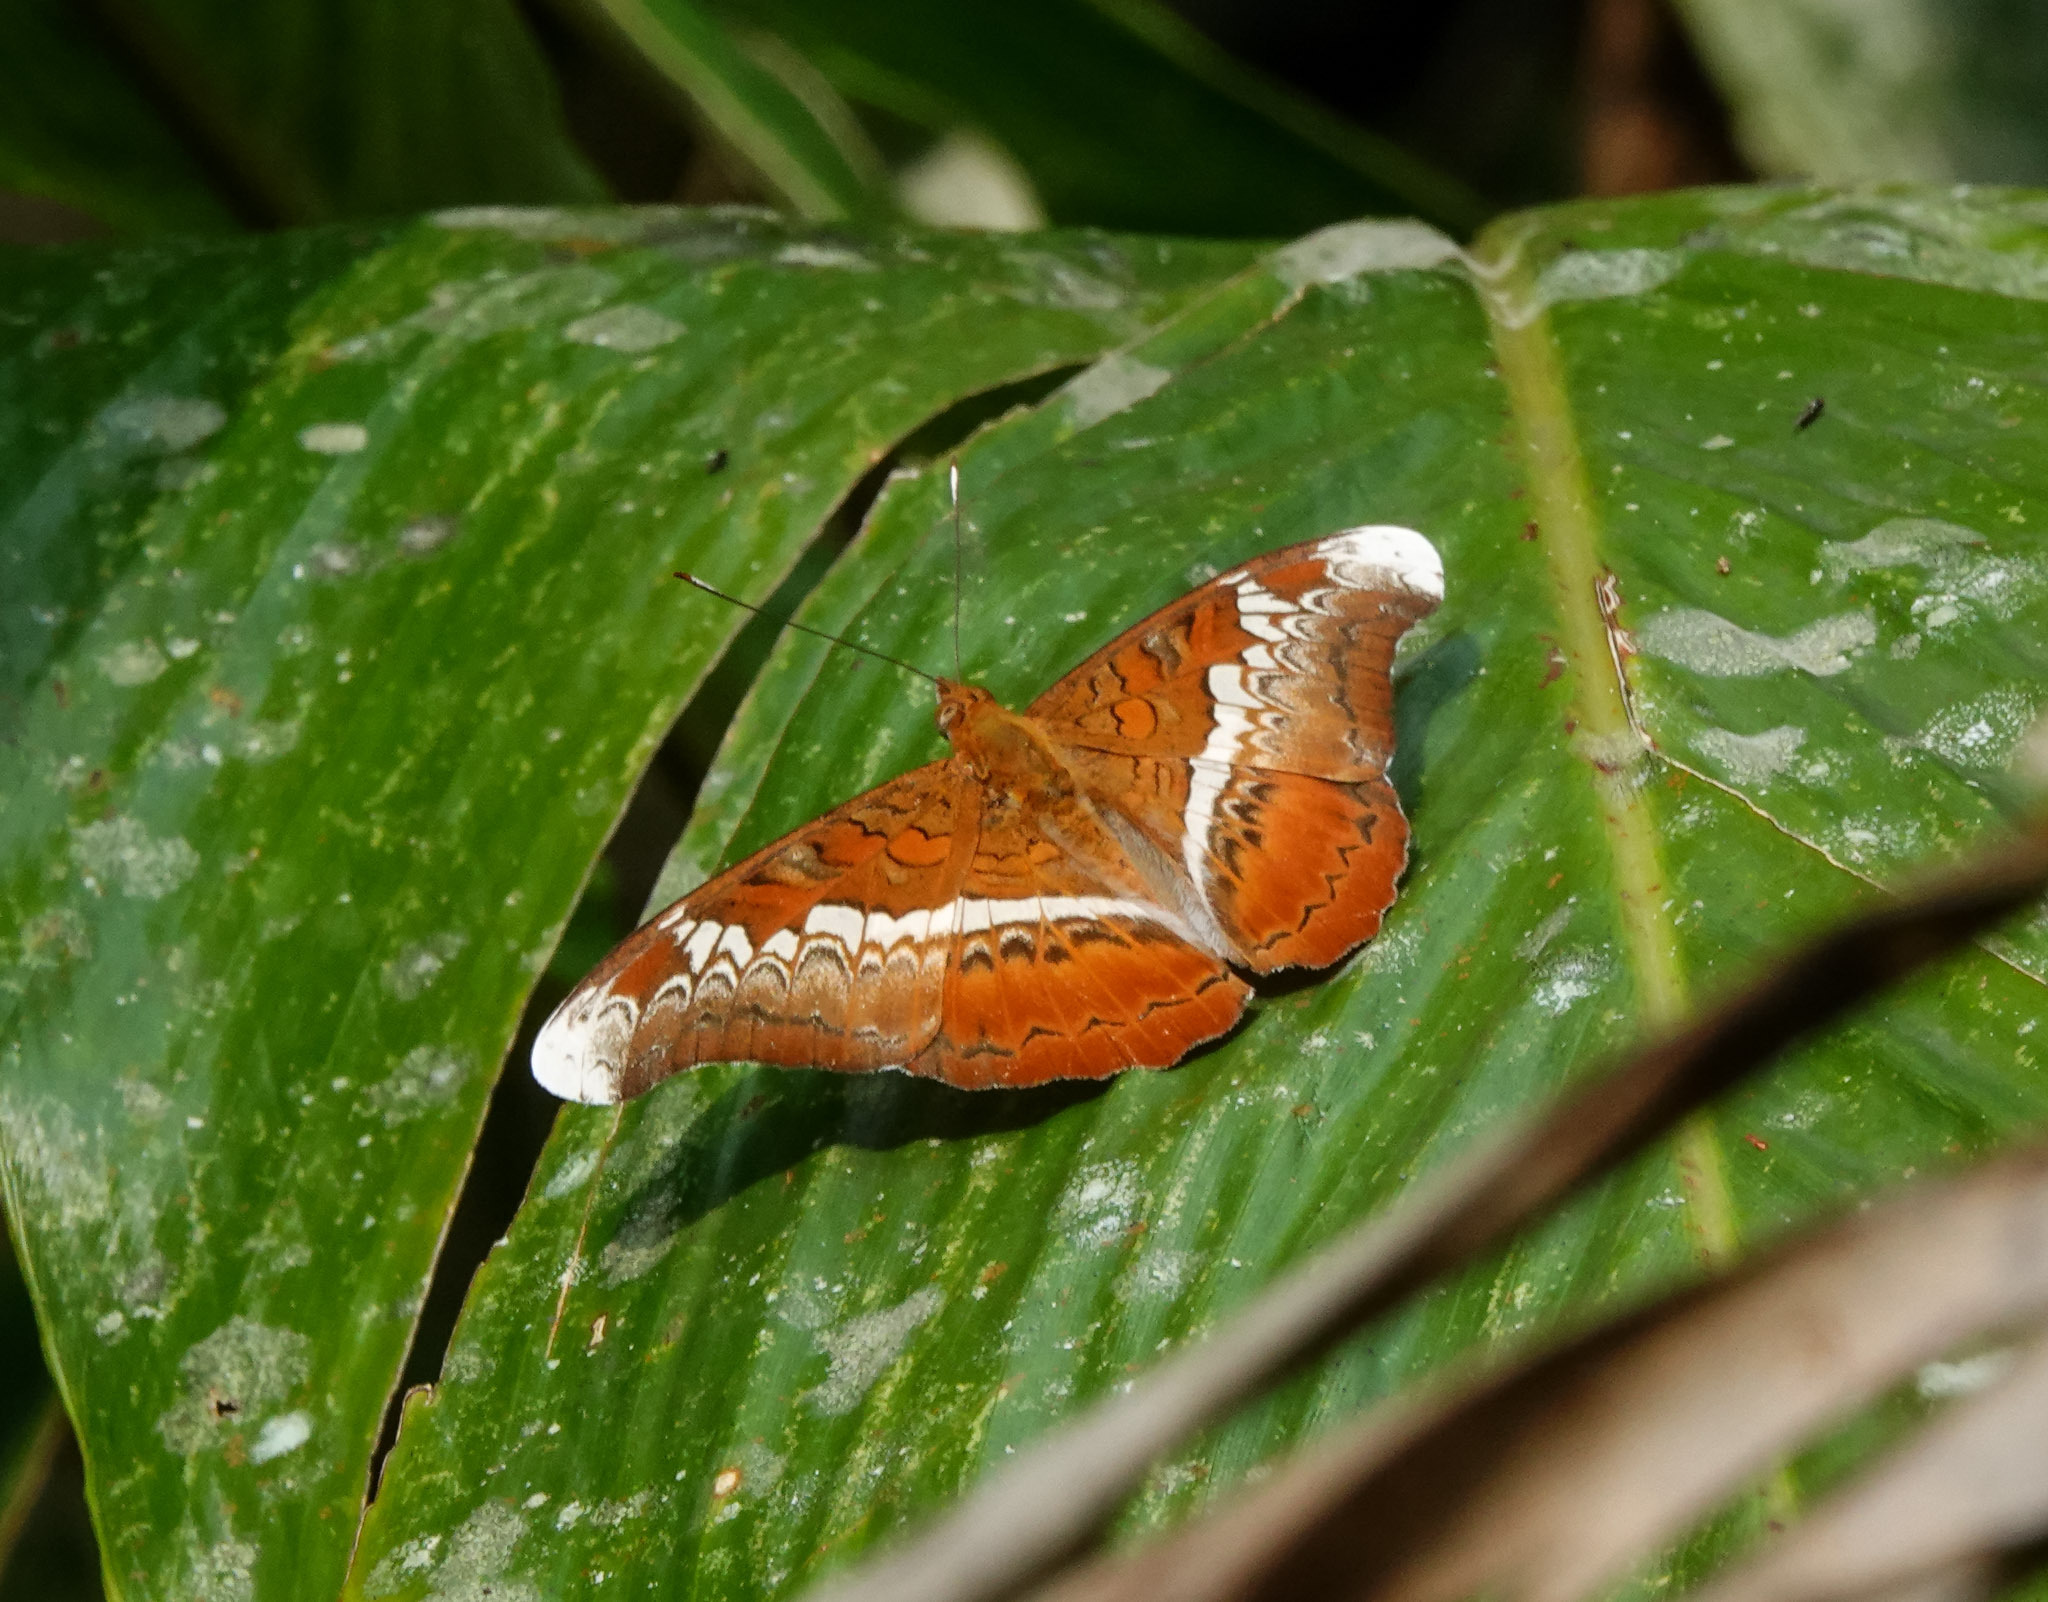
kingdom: Animalia
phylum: Arthropoda
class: Insecta
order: Lepidoptera
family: Nymphalidae
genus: Lebadea
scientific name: Lebadea martha
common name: Knight
